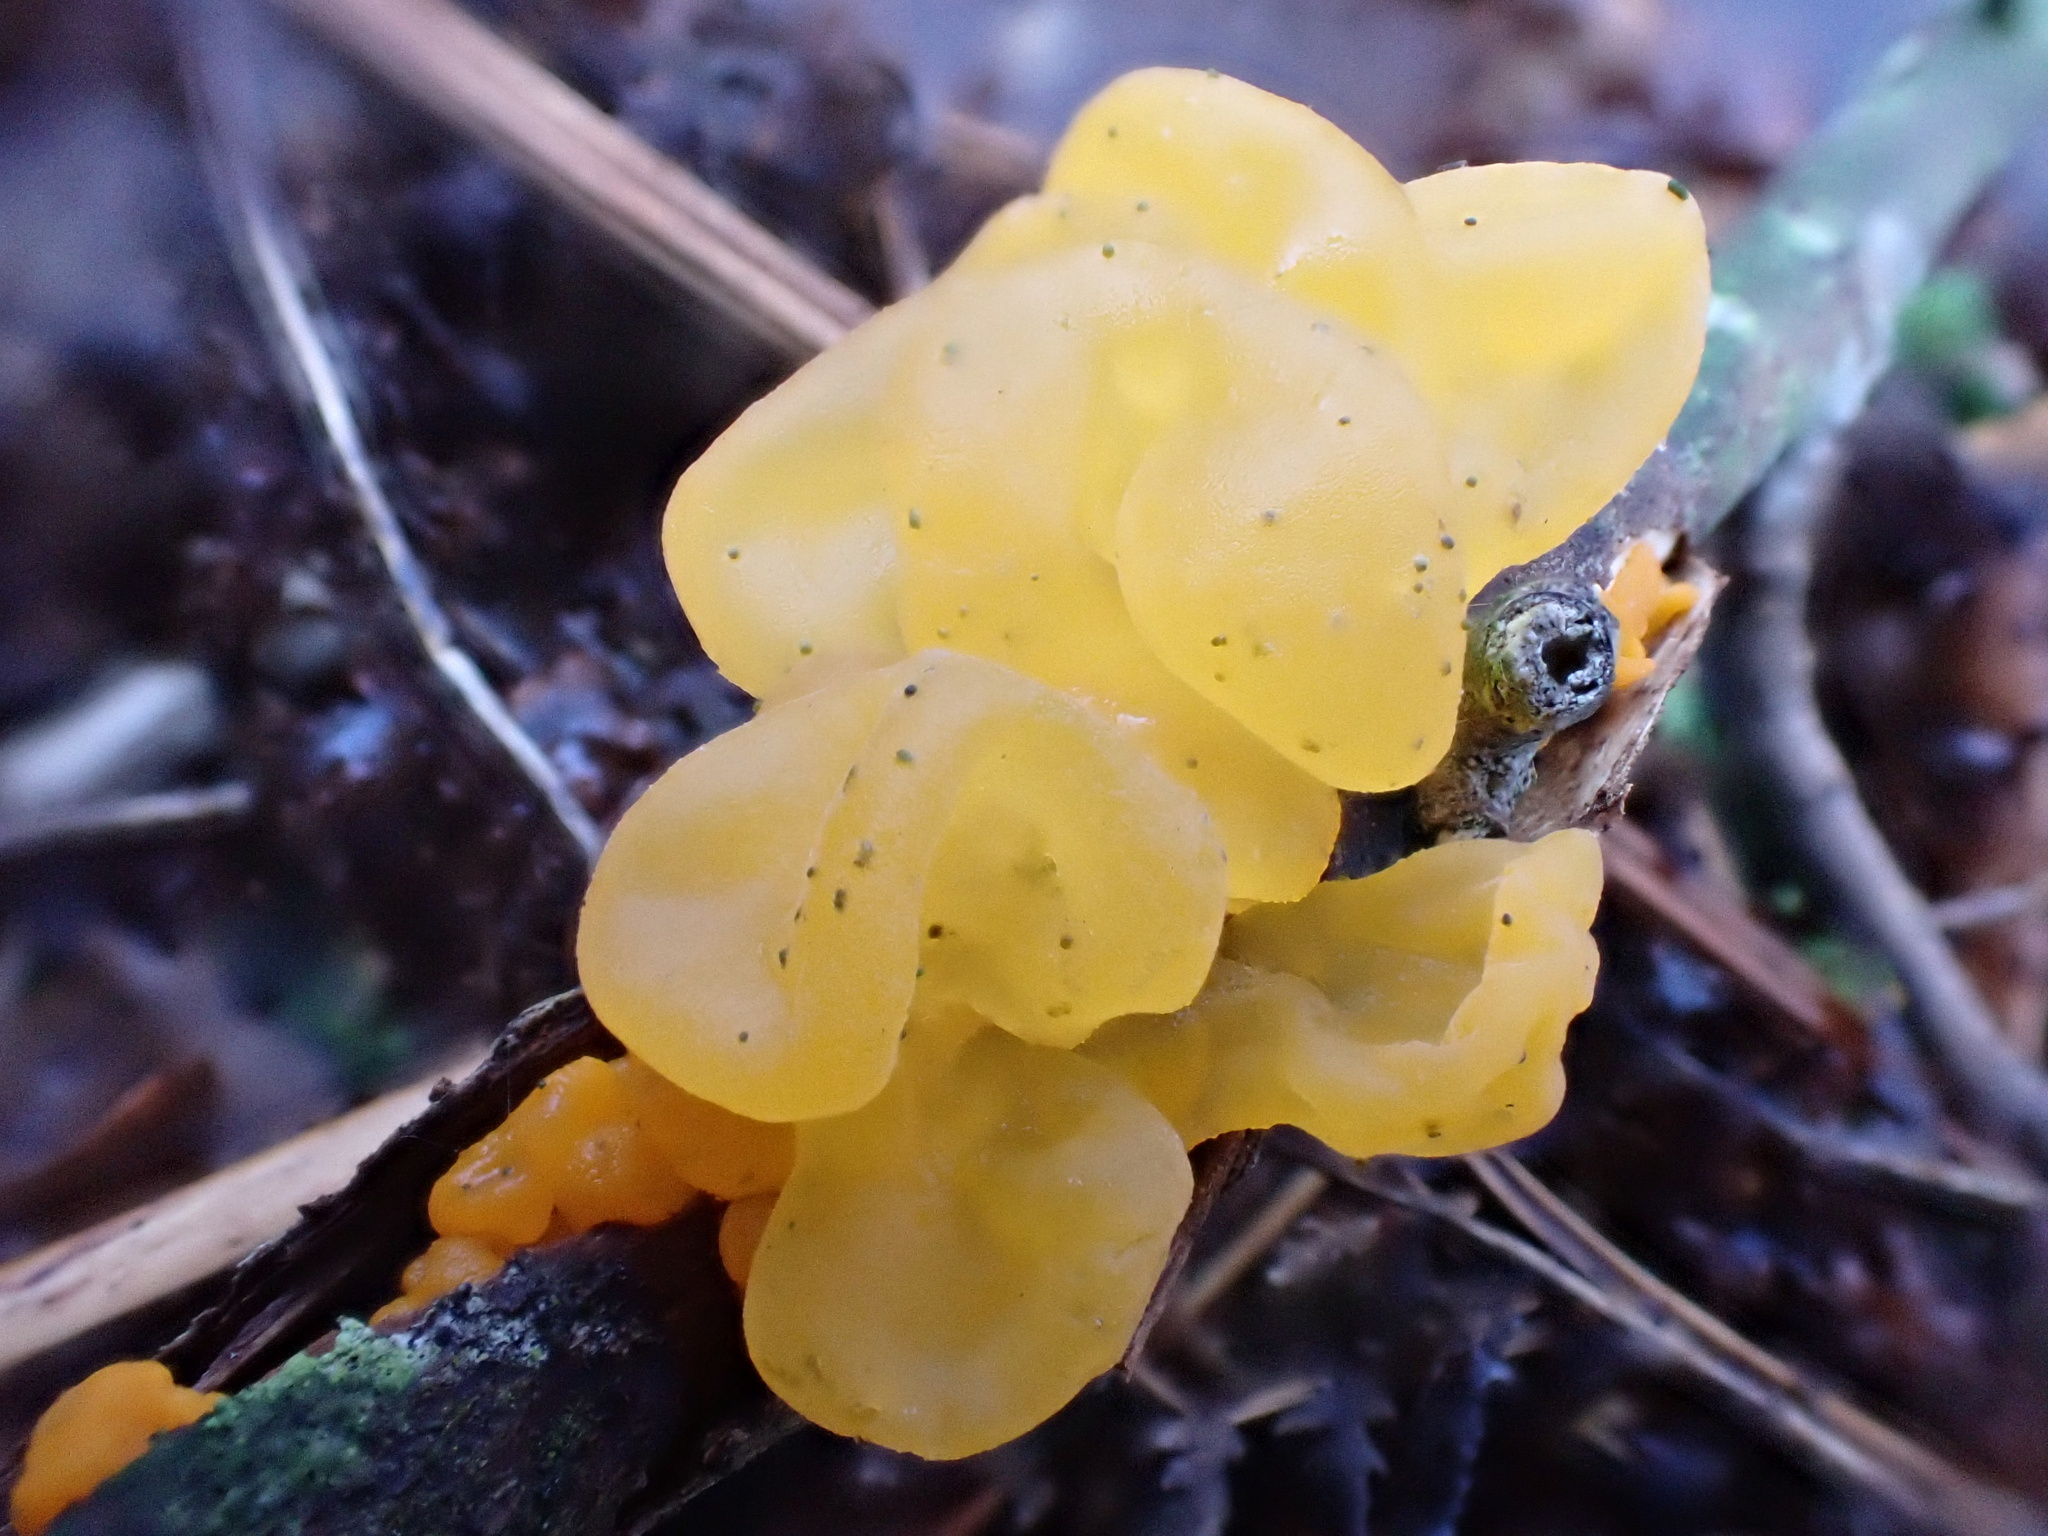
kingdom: Fungi
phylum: Basidiomycota
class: Tremellomycetes
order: Tremellales
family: Tremellaceae
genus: Tremella
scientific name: Tremella mesenterica
